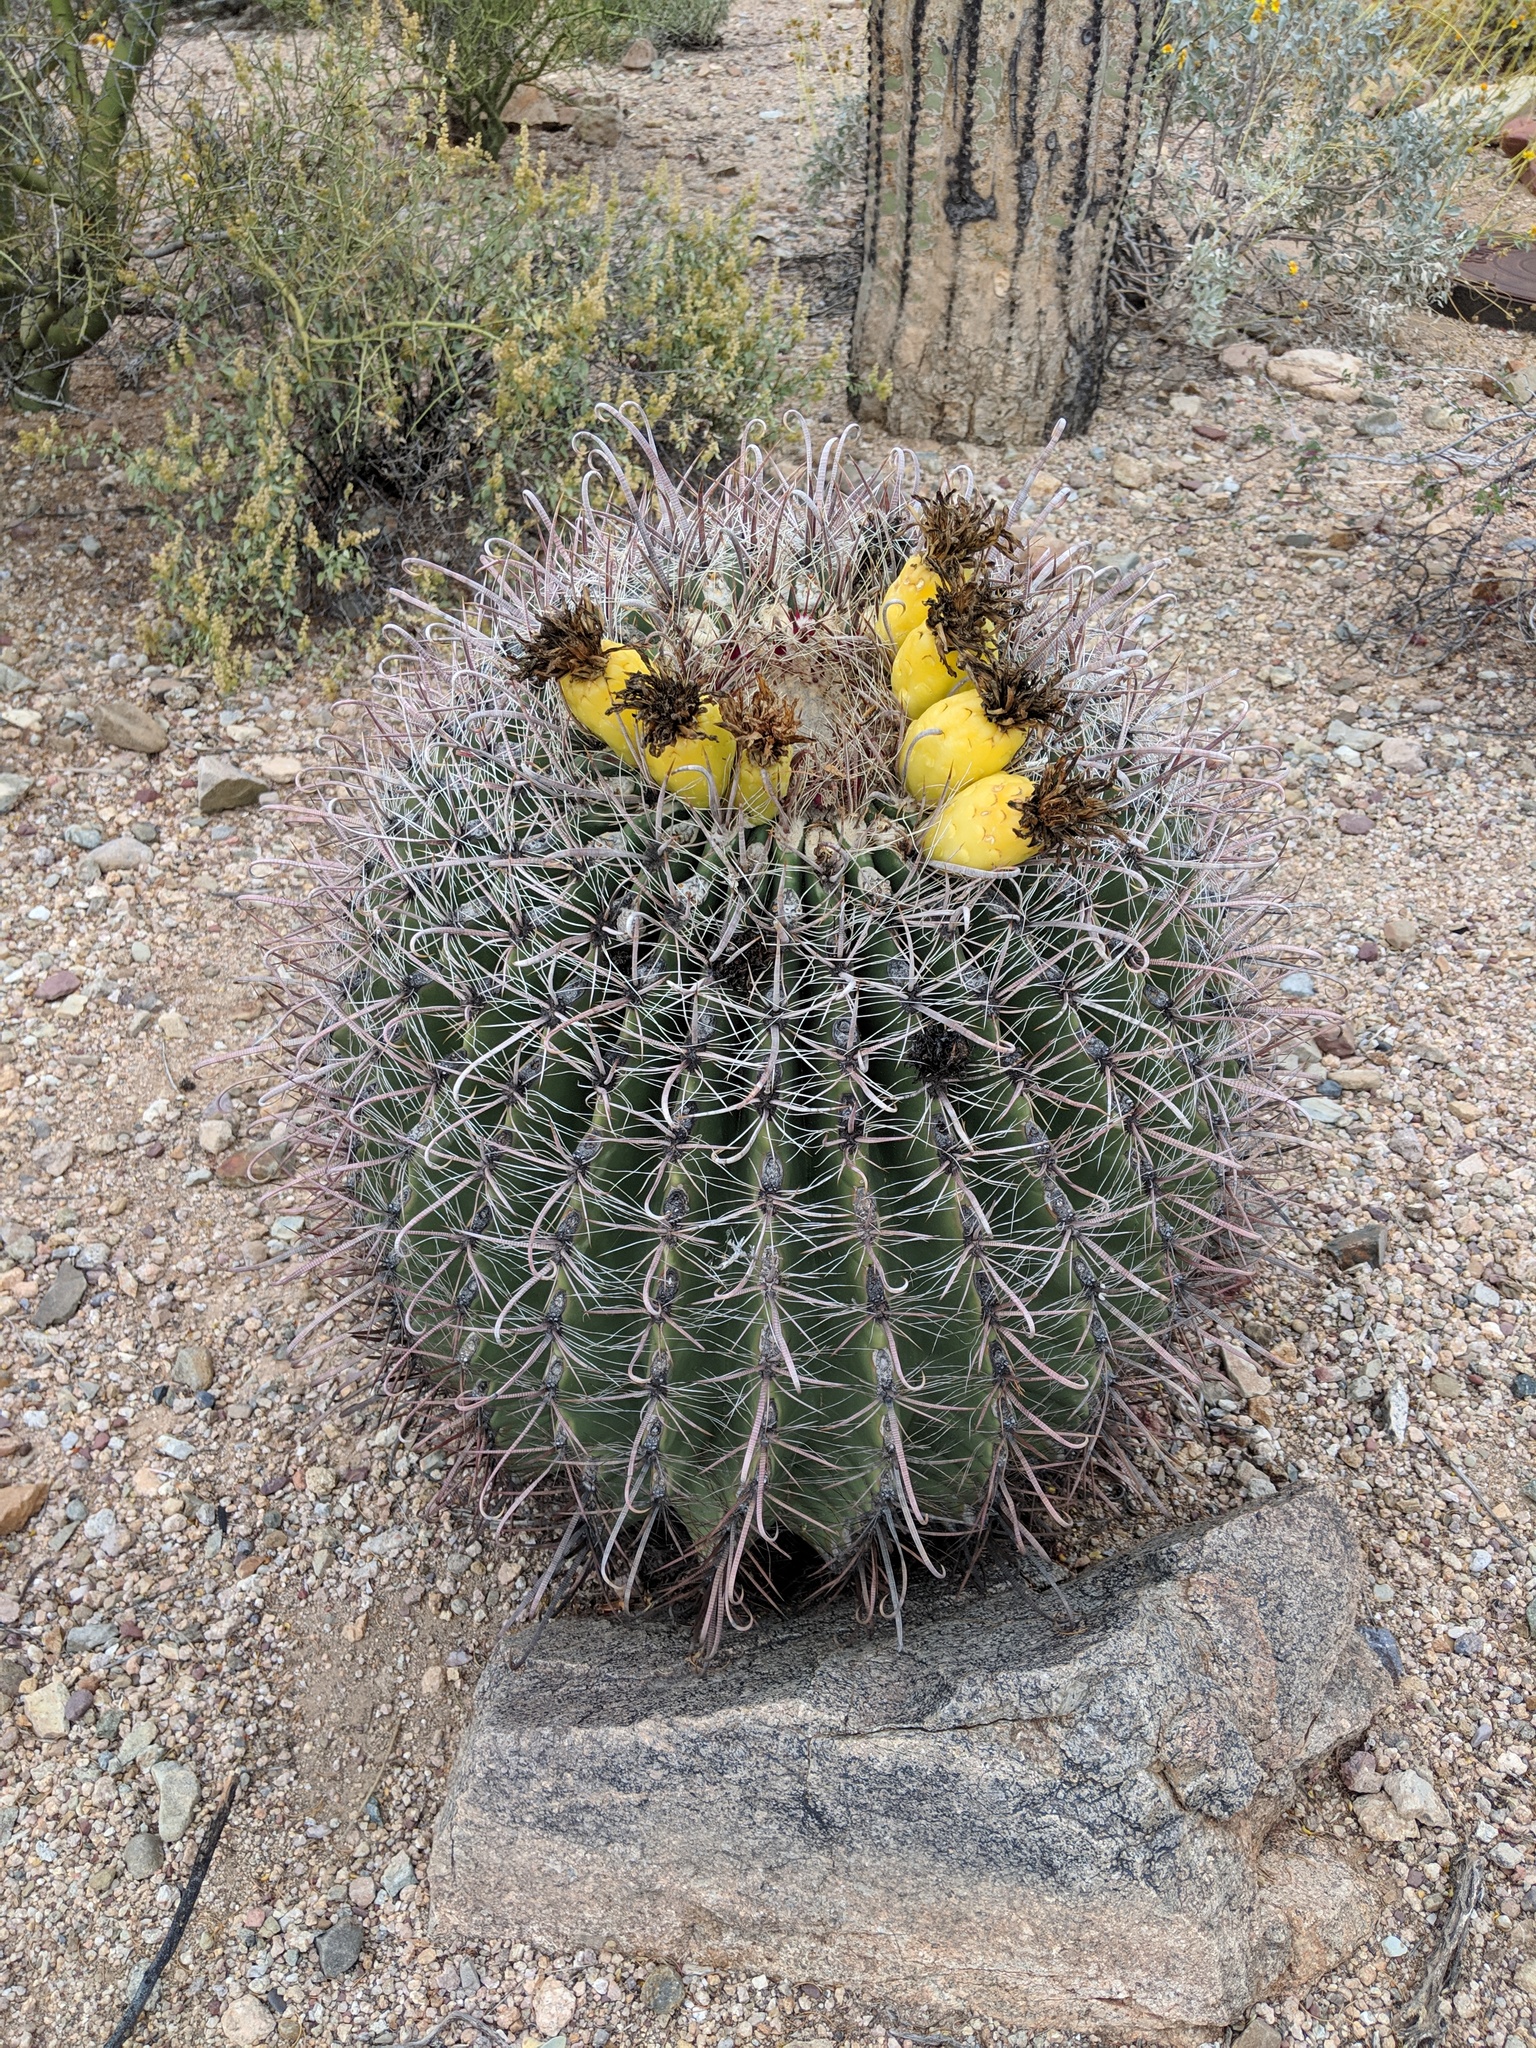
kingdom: Plantae
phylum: Tracheophyta
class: Magnoliopsida
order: Caryophyllales
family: Cactaceae
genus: Ferocactus
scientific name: Ferocactus wislizeni
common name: Candy barrel cactus
